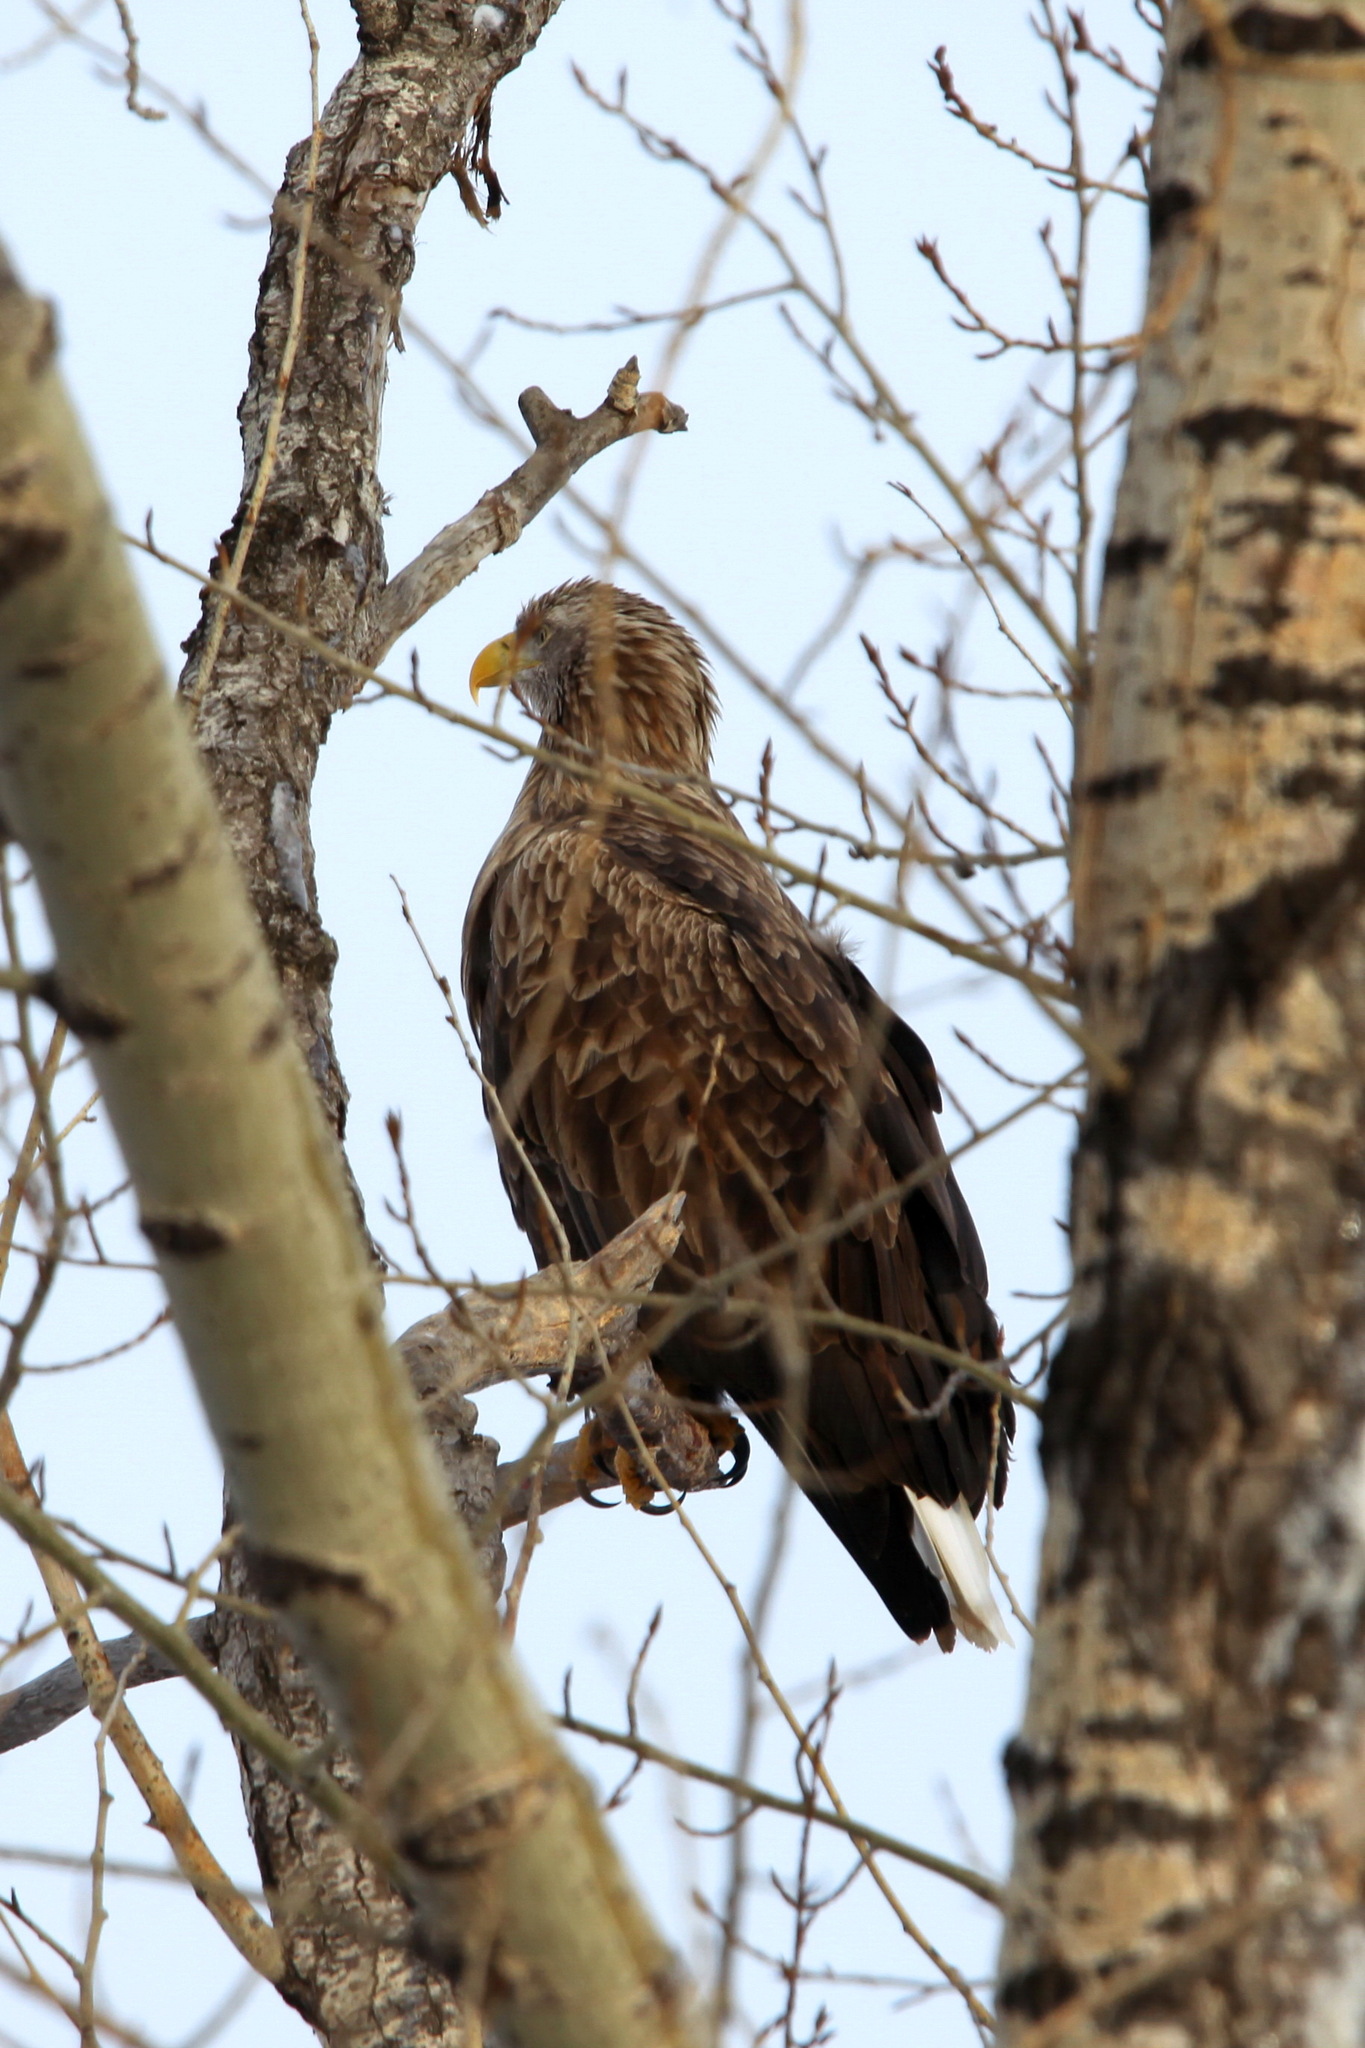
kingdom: Animalia
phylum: Chordata
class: Aves
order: Accipitriformes
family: Accipitridae
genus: Haliaeetus
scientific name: Haliaeetus albicilla
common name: White-tailed eagle
